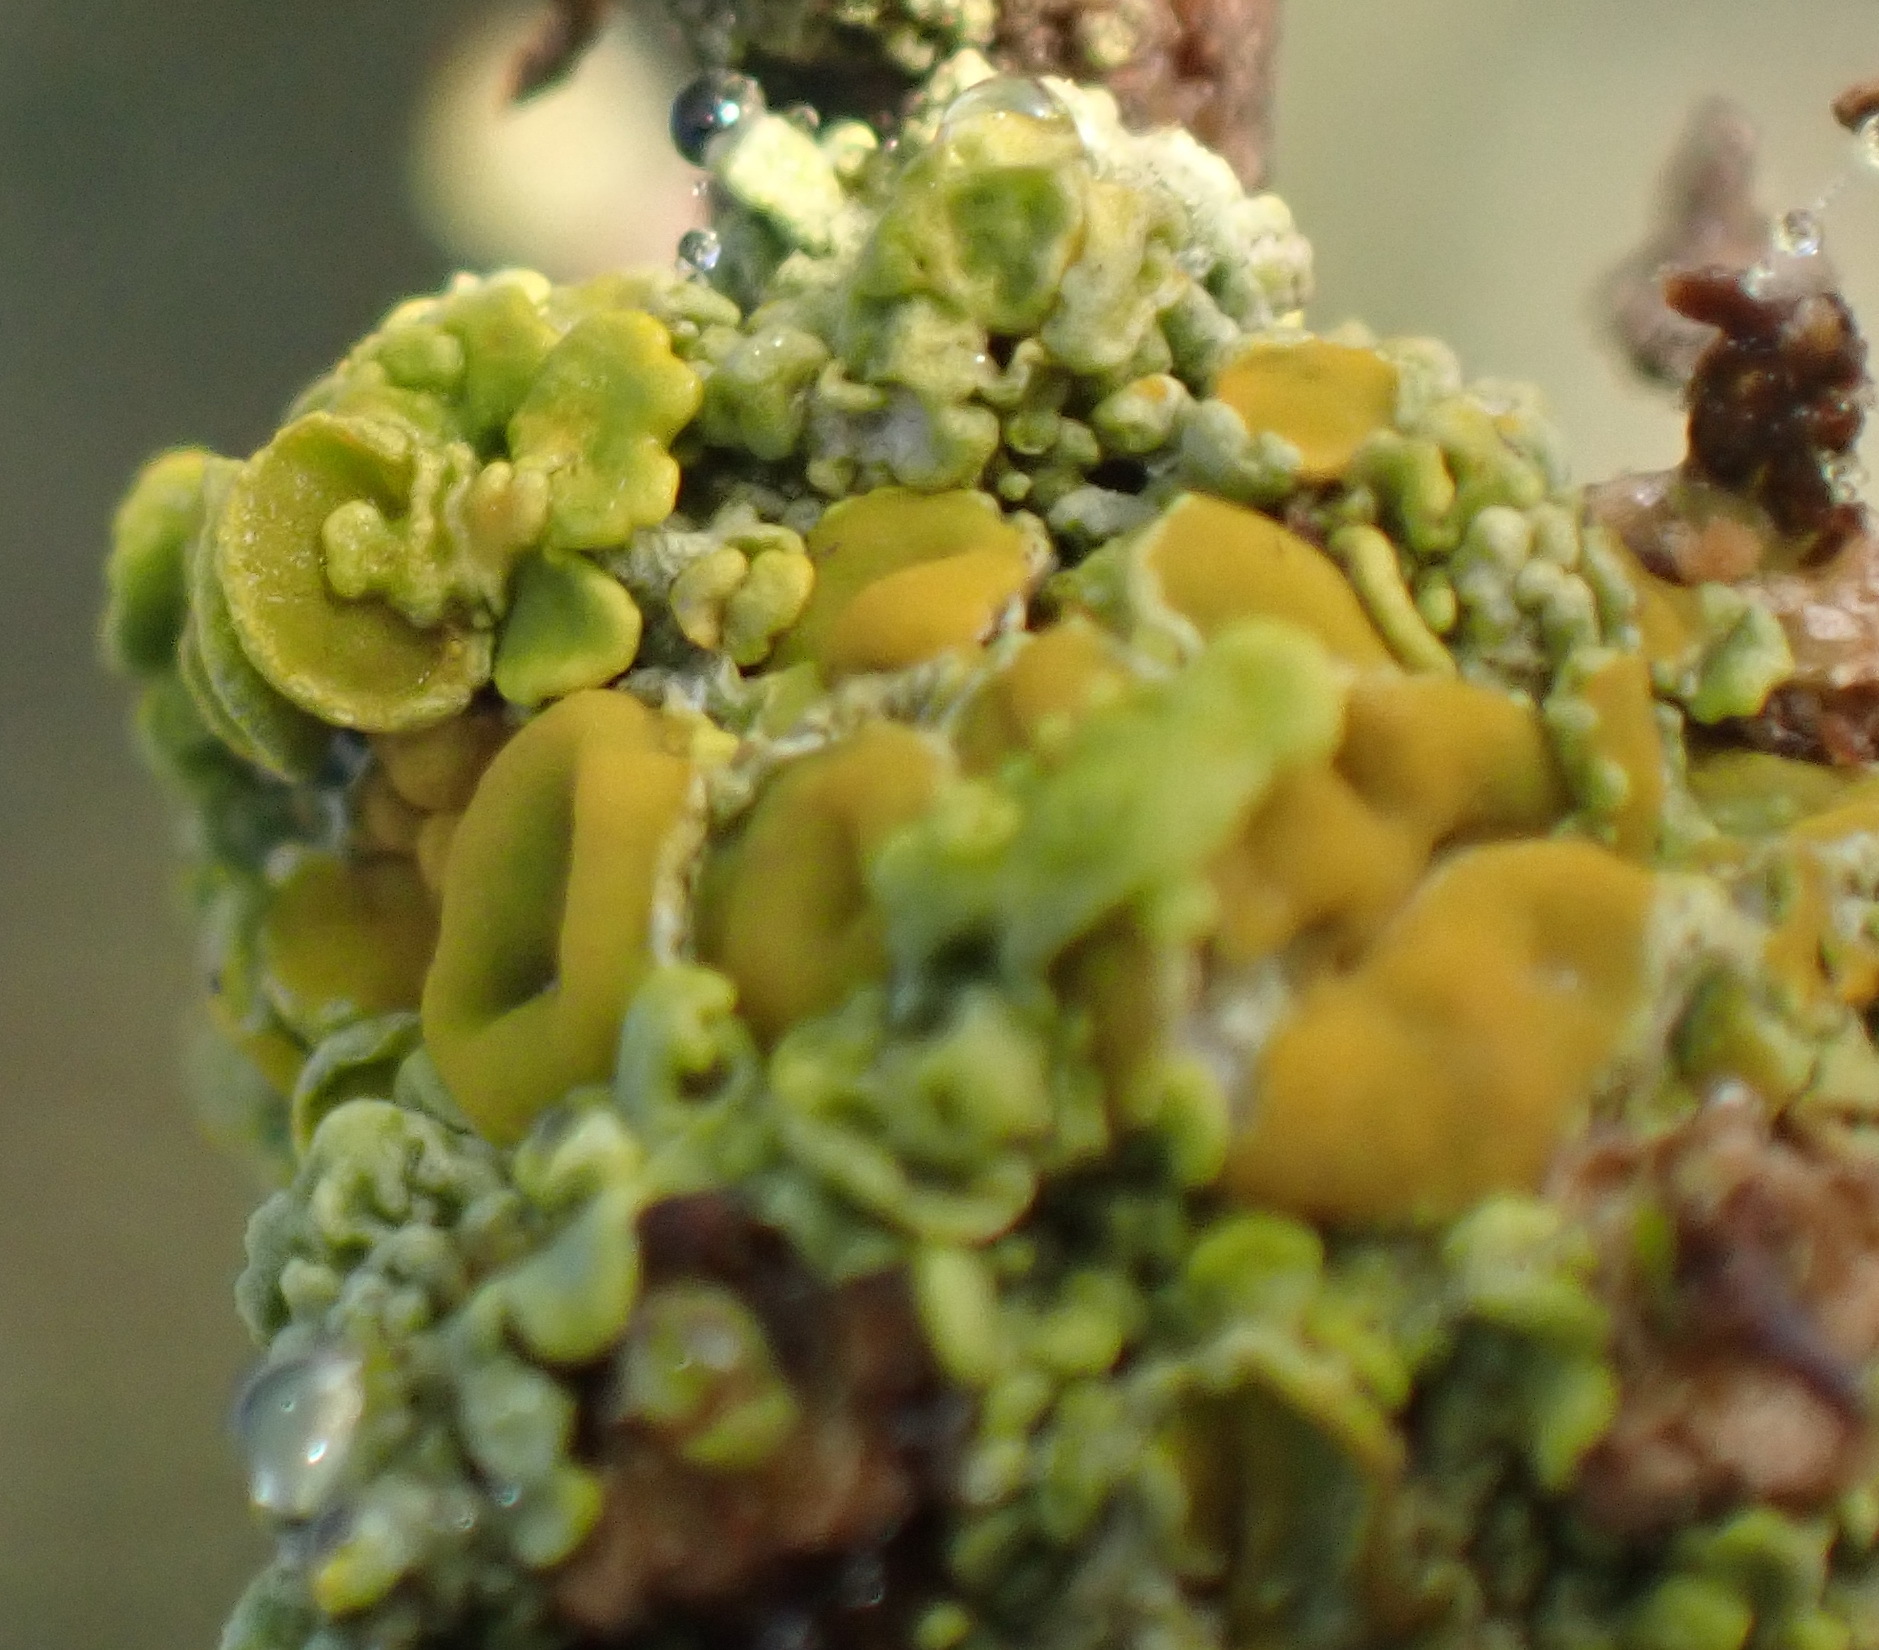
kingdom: Fungi
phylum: Ascomycota
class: Lecanoromycetes
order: Teloschistales
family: Teloschistaceae
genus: Xanthoria
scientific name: Xanthoria parietina
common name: Common orange lichen
